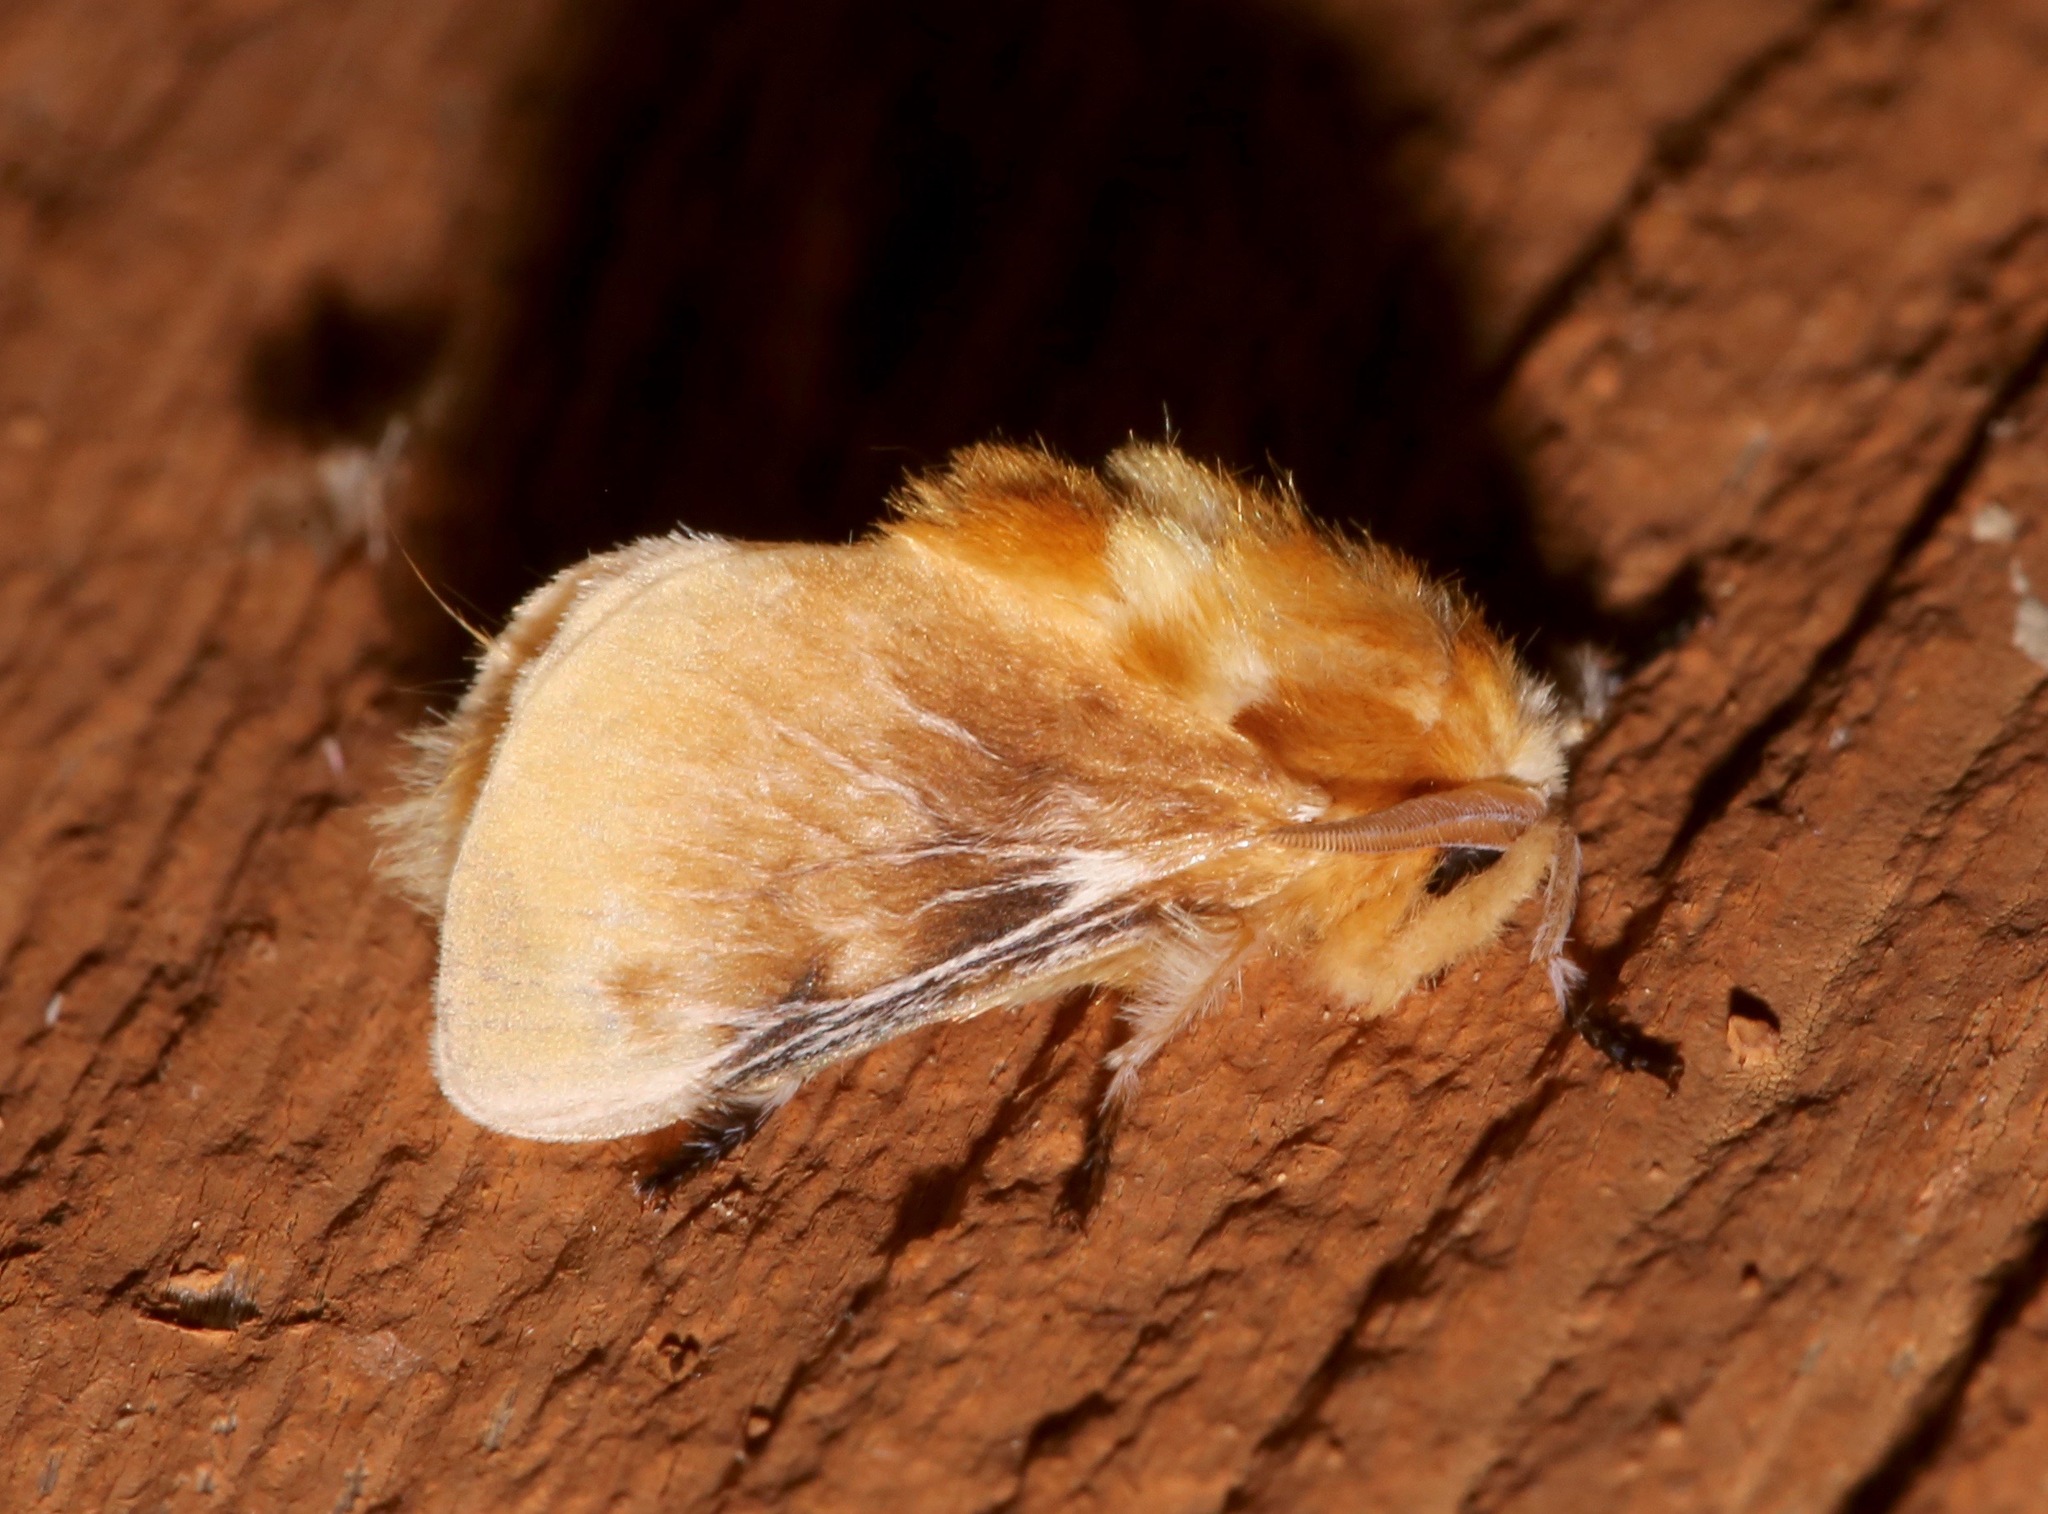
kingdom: Animalia
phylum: Arthropoda
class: Insecta
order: Lepidoptera
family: Megalopygidae
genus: Megalopyge
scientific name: Megalopyge opercularis
